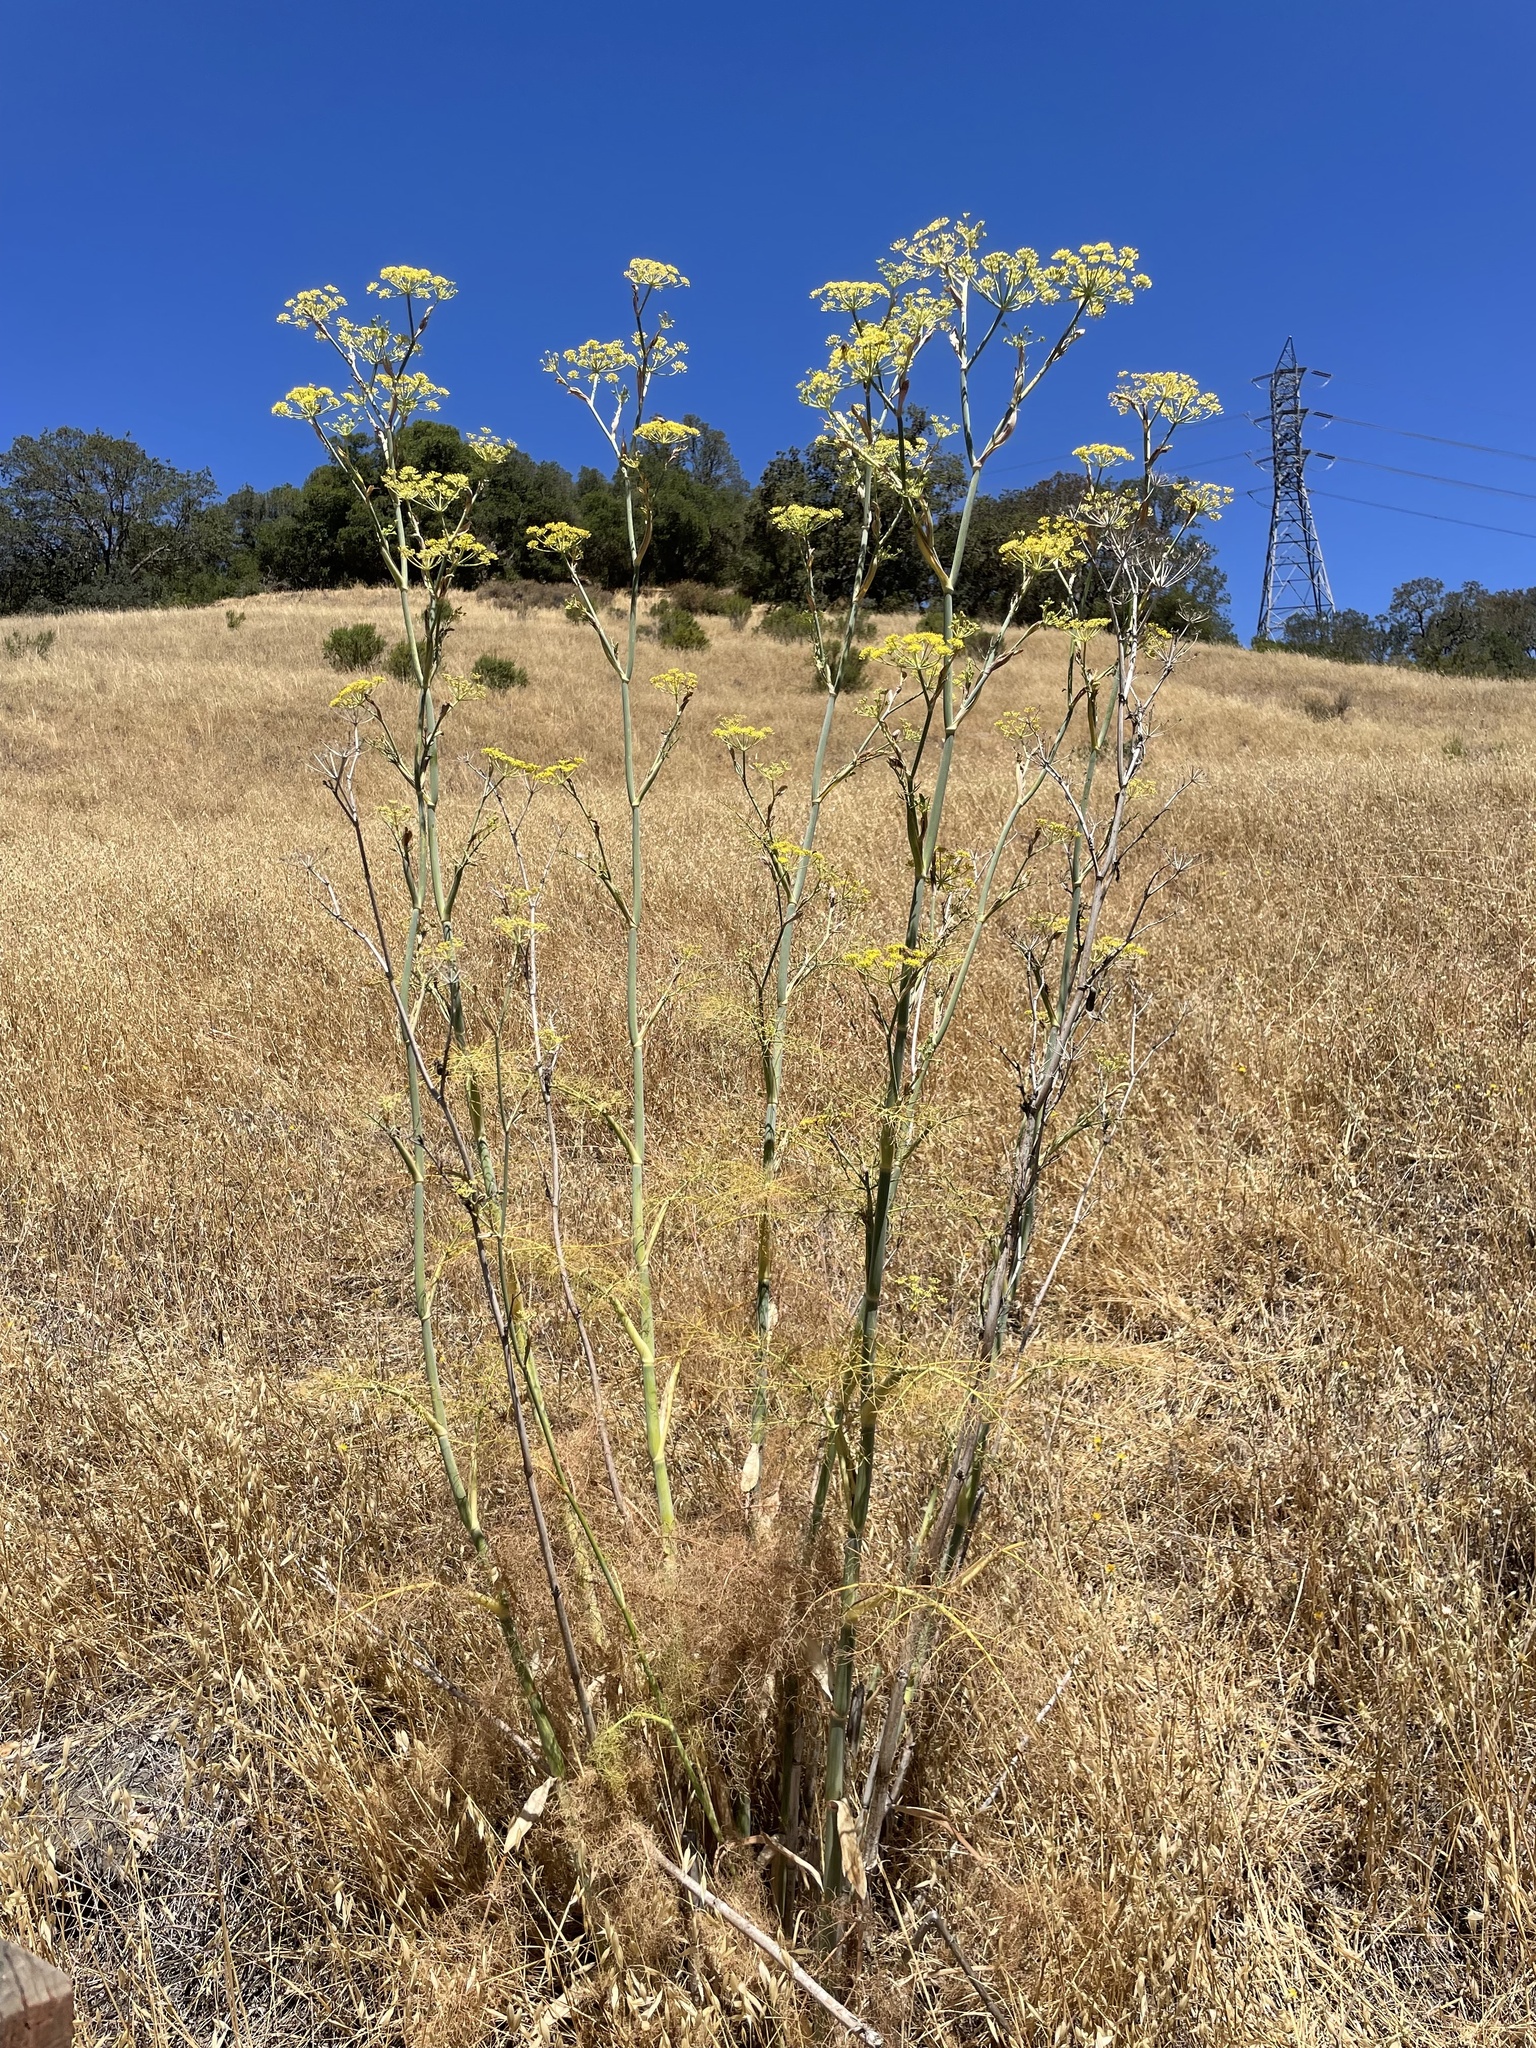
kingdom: Plantae
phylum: Tracheophyta
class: Magnoliopsida
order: Apiales
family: Apiaceae
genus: Foeniculum
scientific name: Foeniculum vulgare
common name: Fennel
